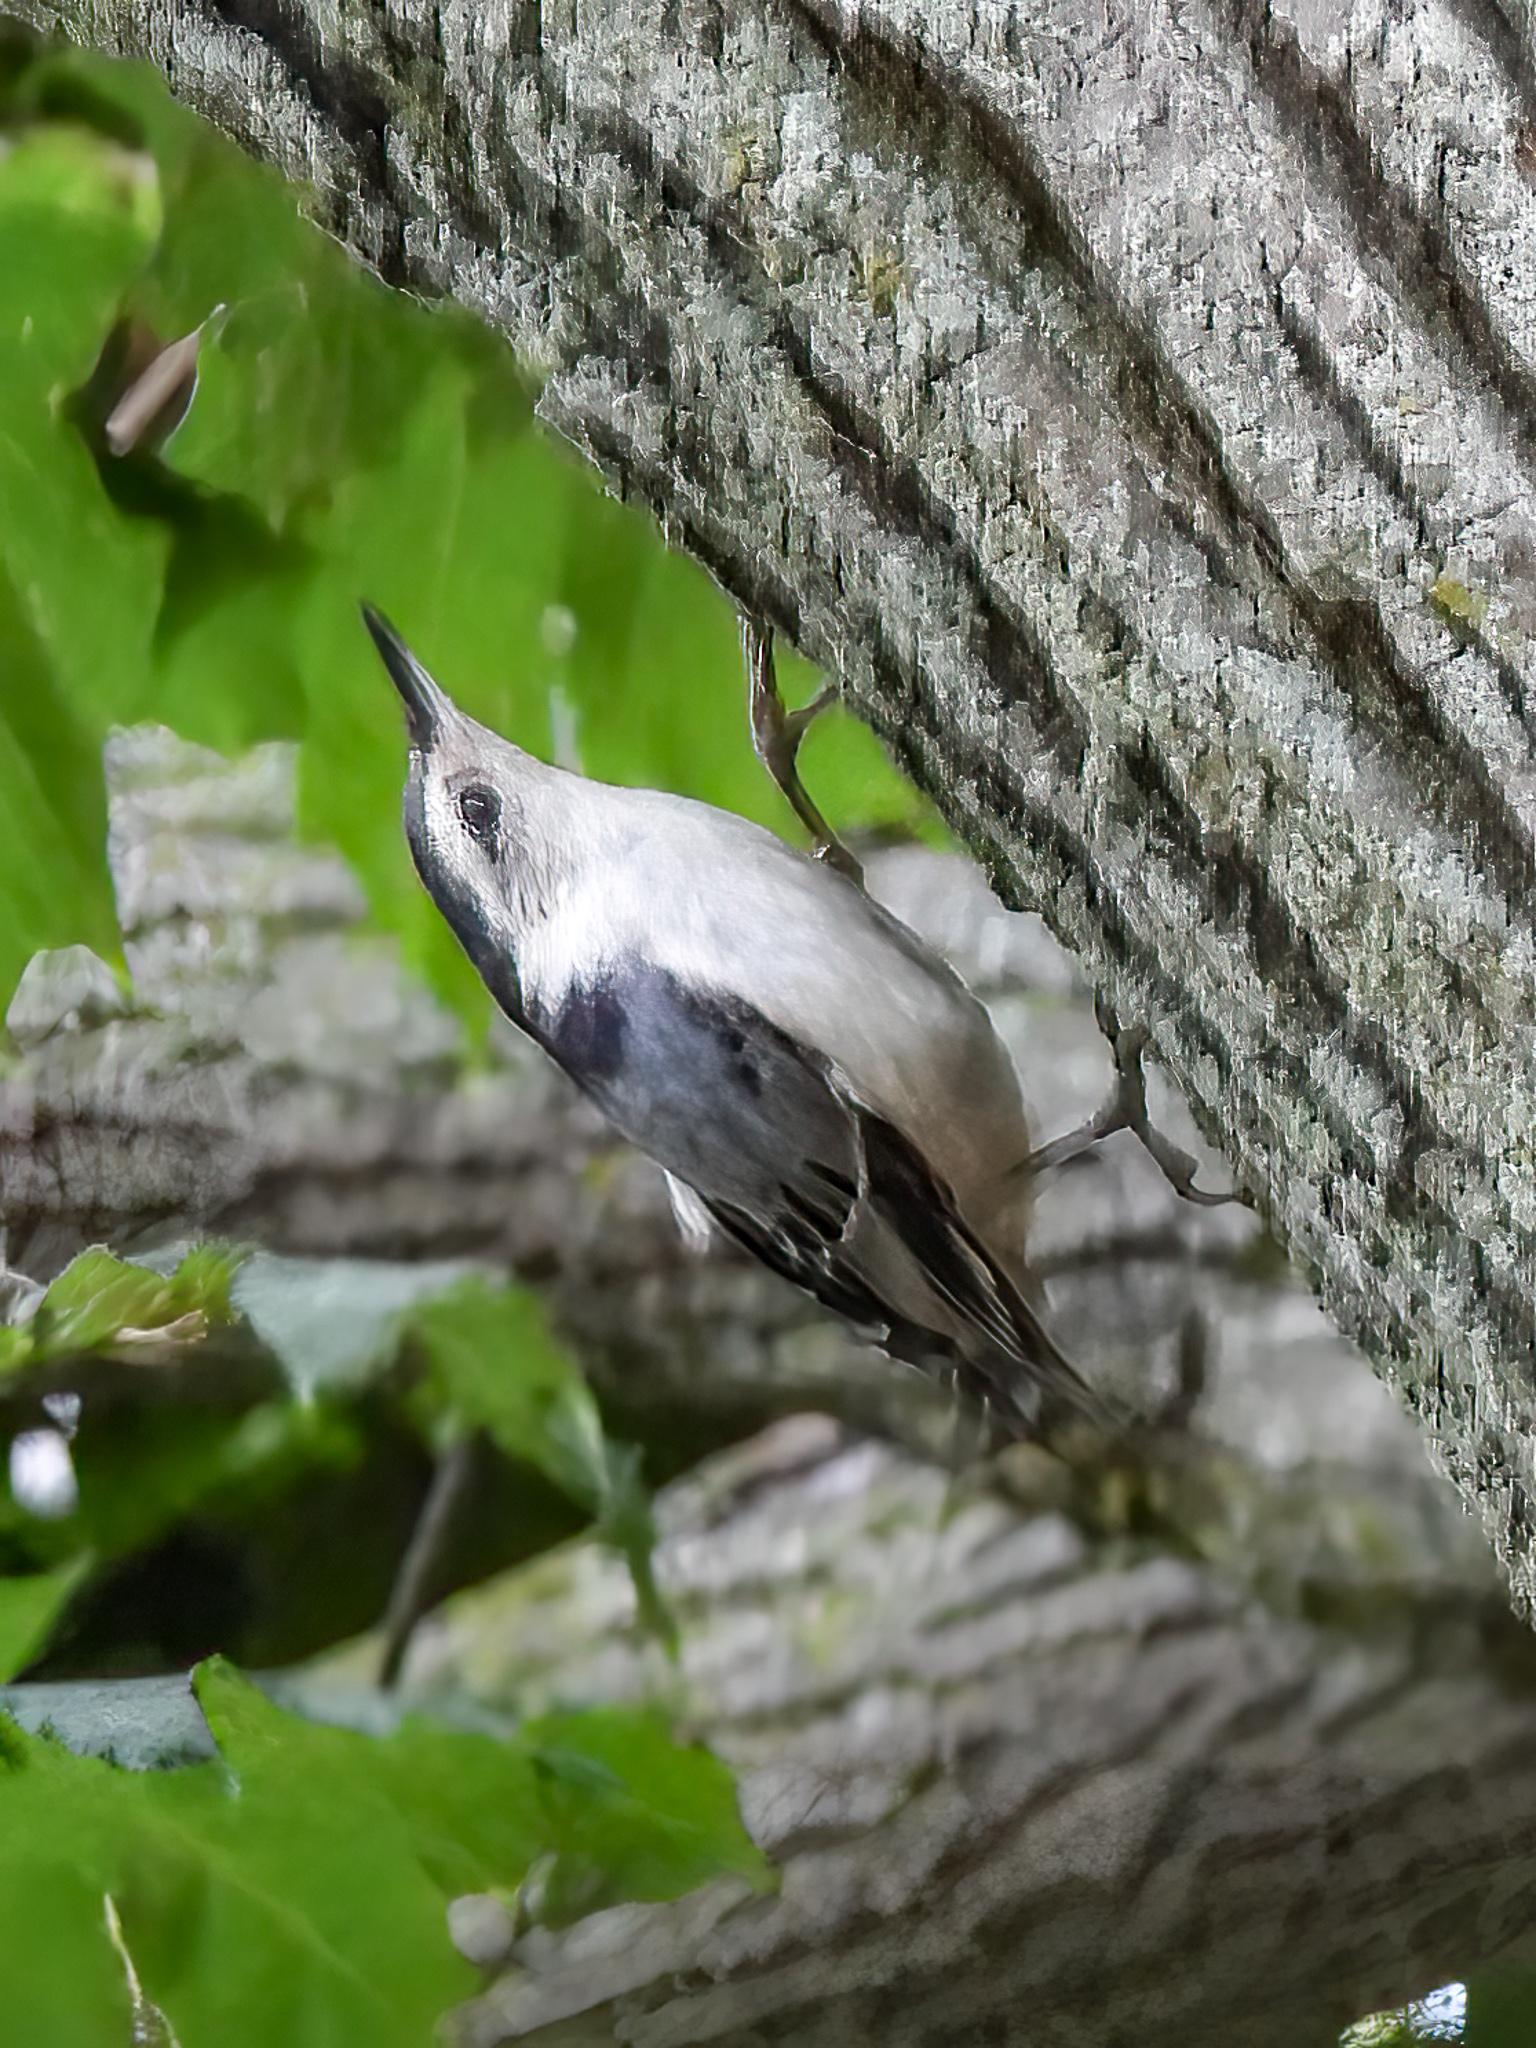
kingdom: Animalia
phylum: Chordata
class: Aves
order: Passeriformes
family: Sittidae
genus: Sitta
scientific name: Sitta carolinensis
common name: White-breasted nuthatch
